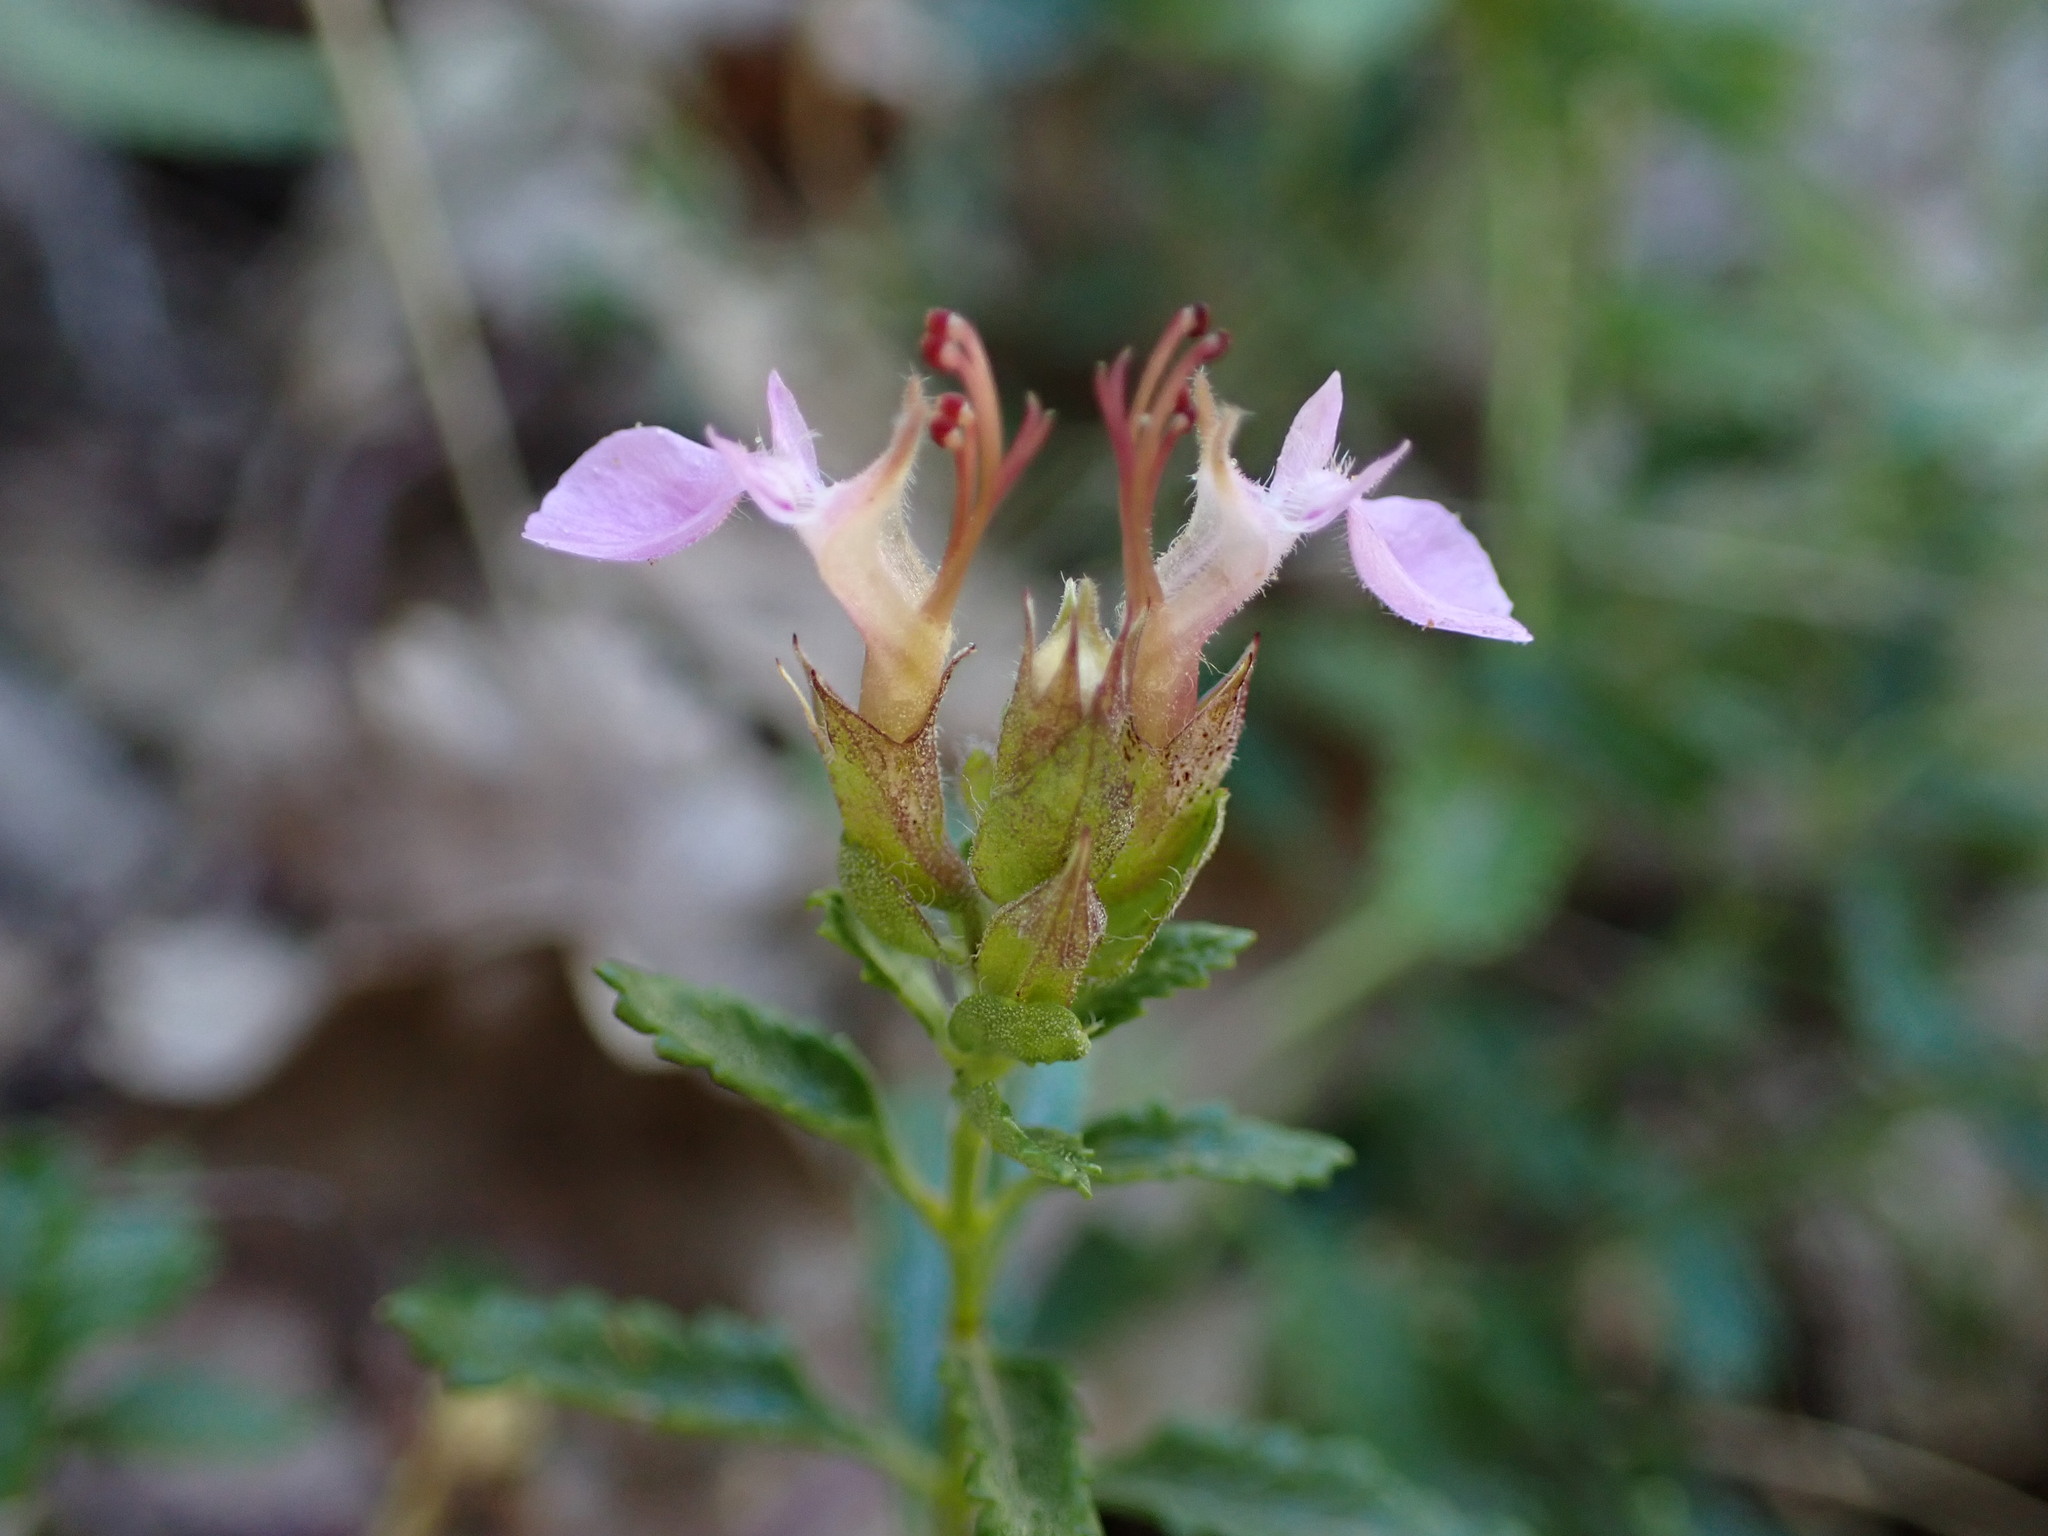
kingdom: Plantae
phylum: Tracheophyta
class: Magnoliopsida
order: Lamiales
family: Lamiaceae
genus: Teucrium
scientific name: Teucrium chamaedrys
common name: Wall germander
